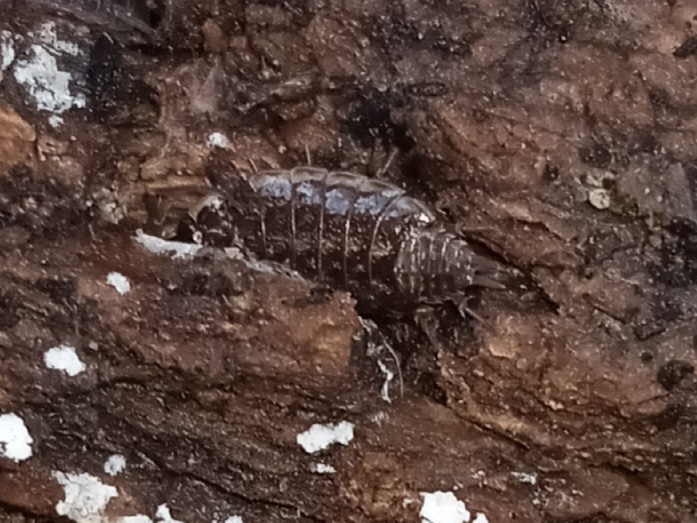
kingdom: Animalia
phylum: Arthropoda
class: Malacostraca
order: Isopoda
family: Philosciidae
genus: Philoscia
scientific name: Philoscia muscorum
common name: Common striped woodlouse
